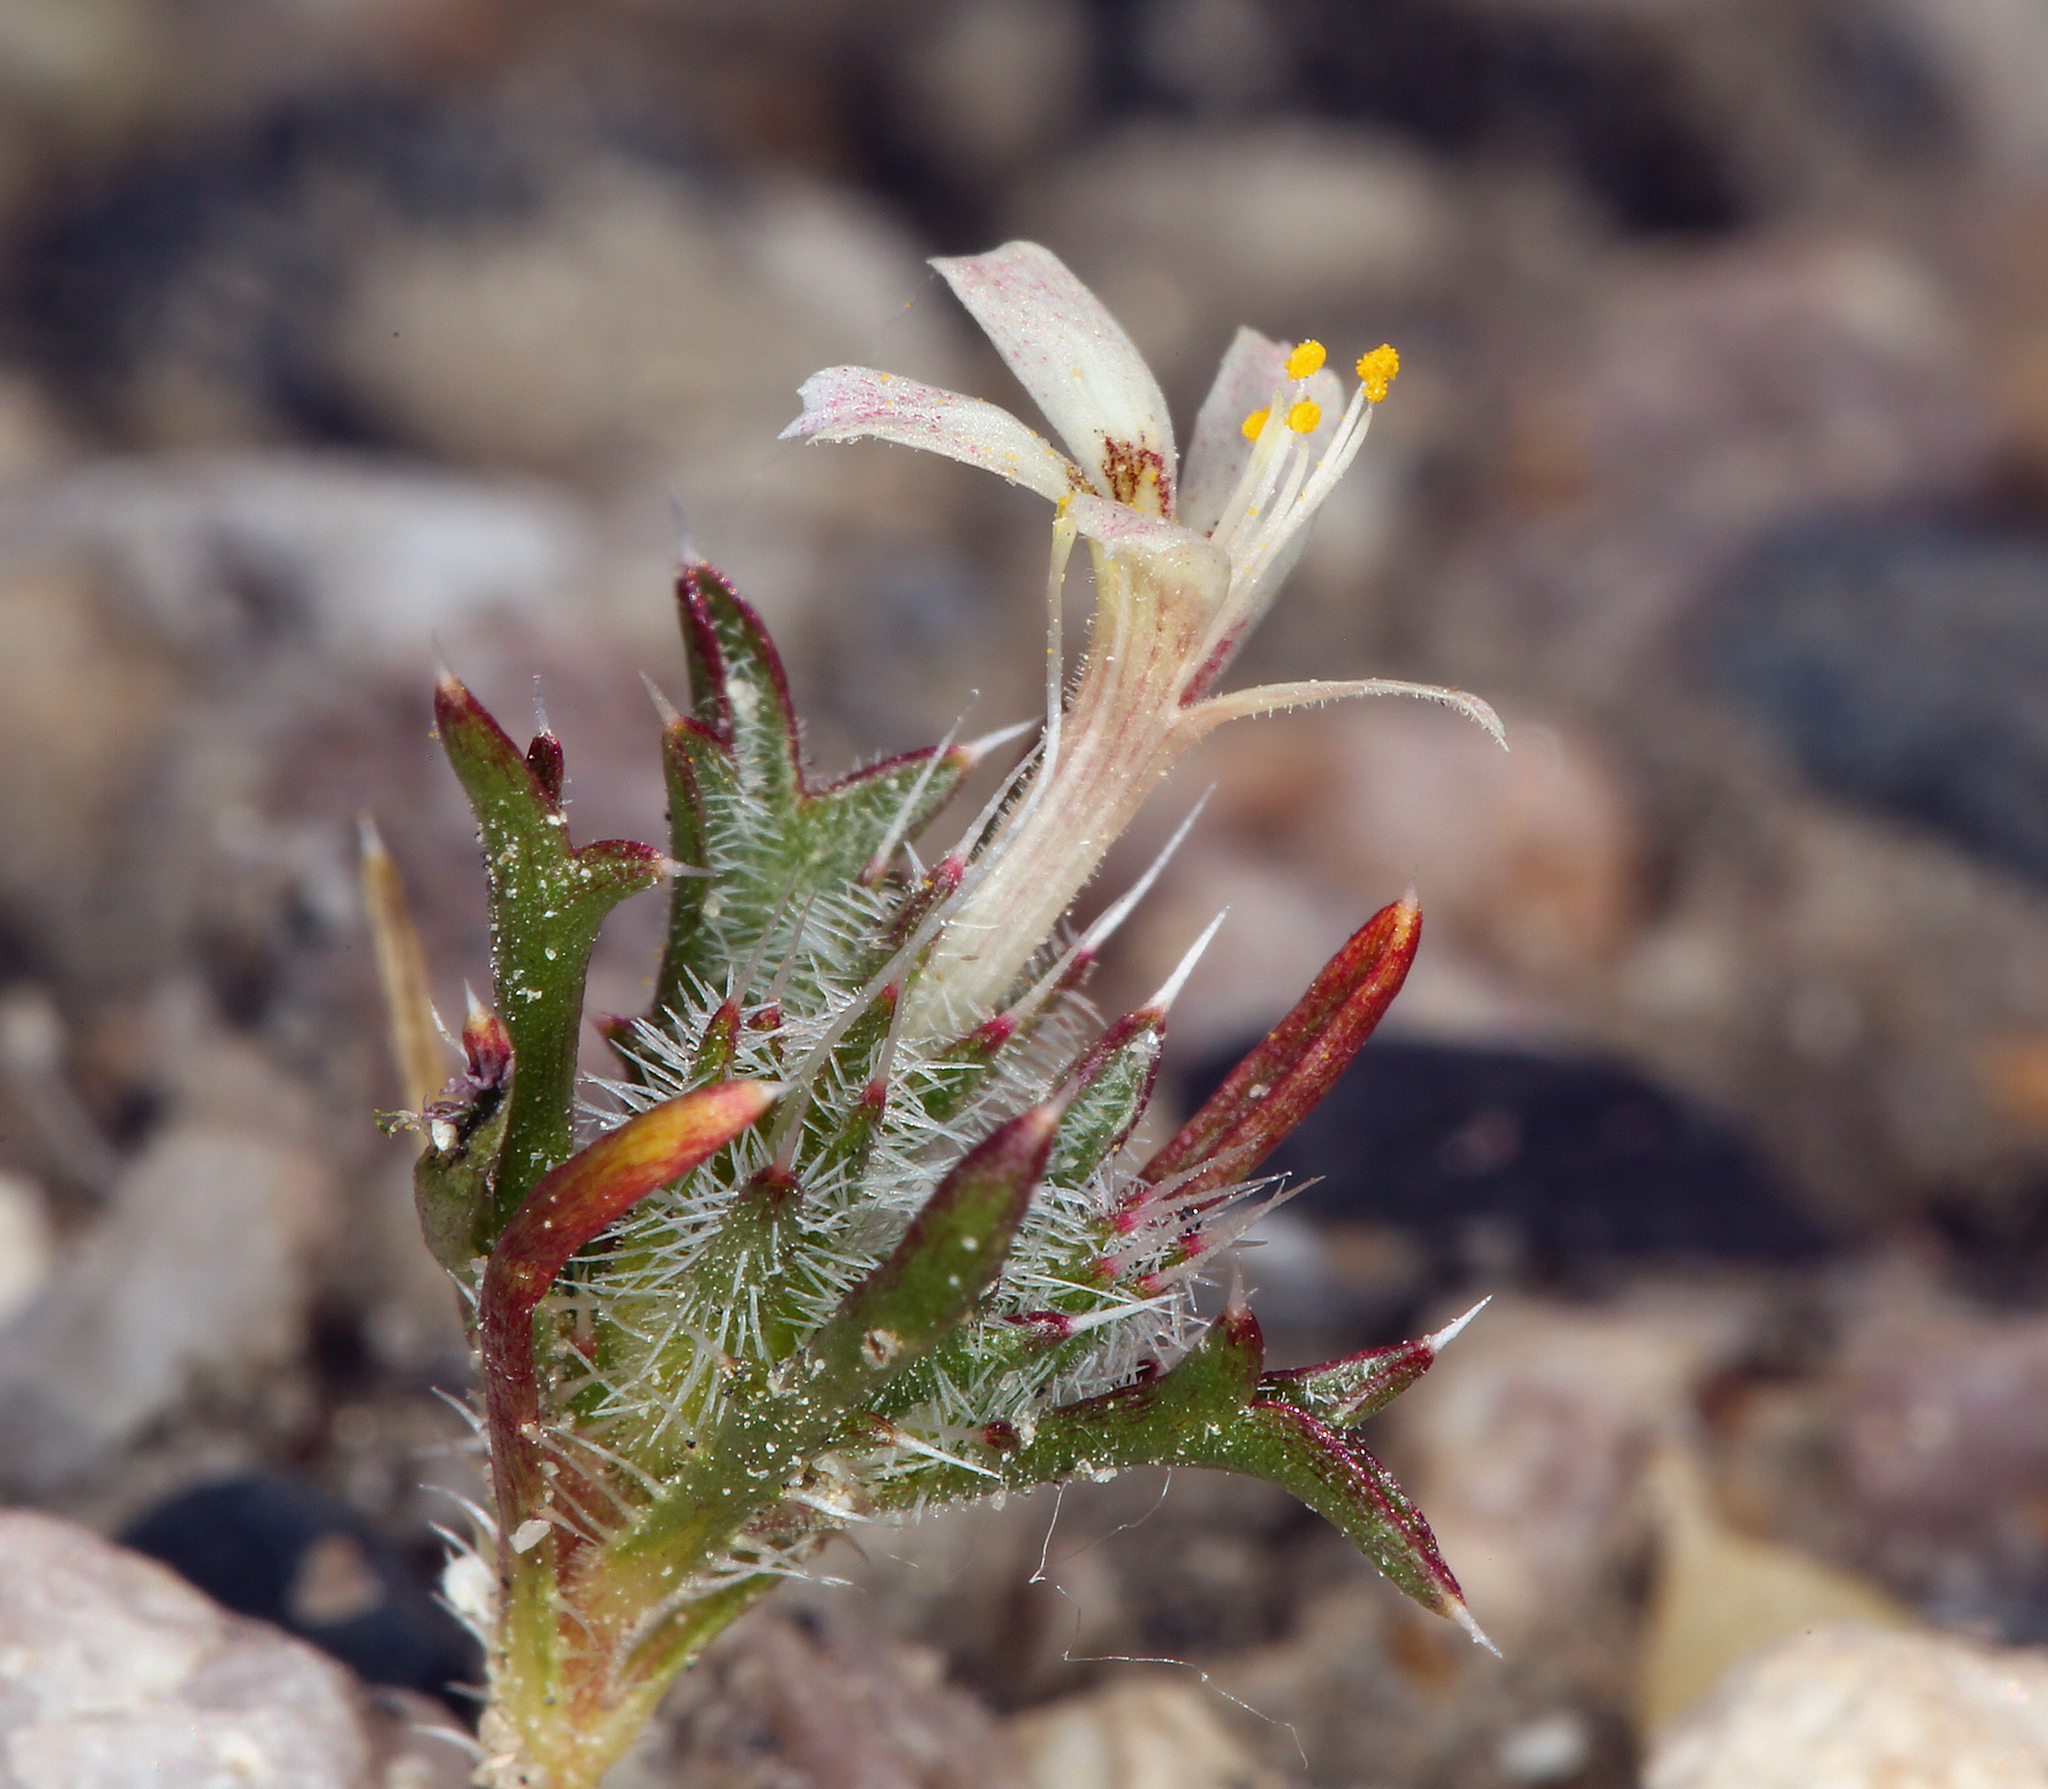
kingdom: Plantae
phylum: Tracheophyta
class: Magnoliopsida
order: Ericales
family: Polemoniaceae
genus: Loeseliastrum
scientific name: Loeseliastrum matthewsii
